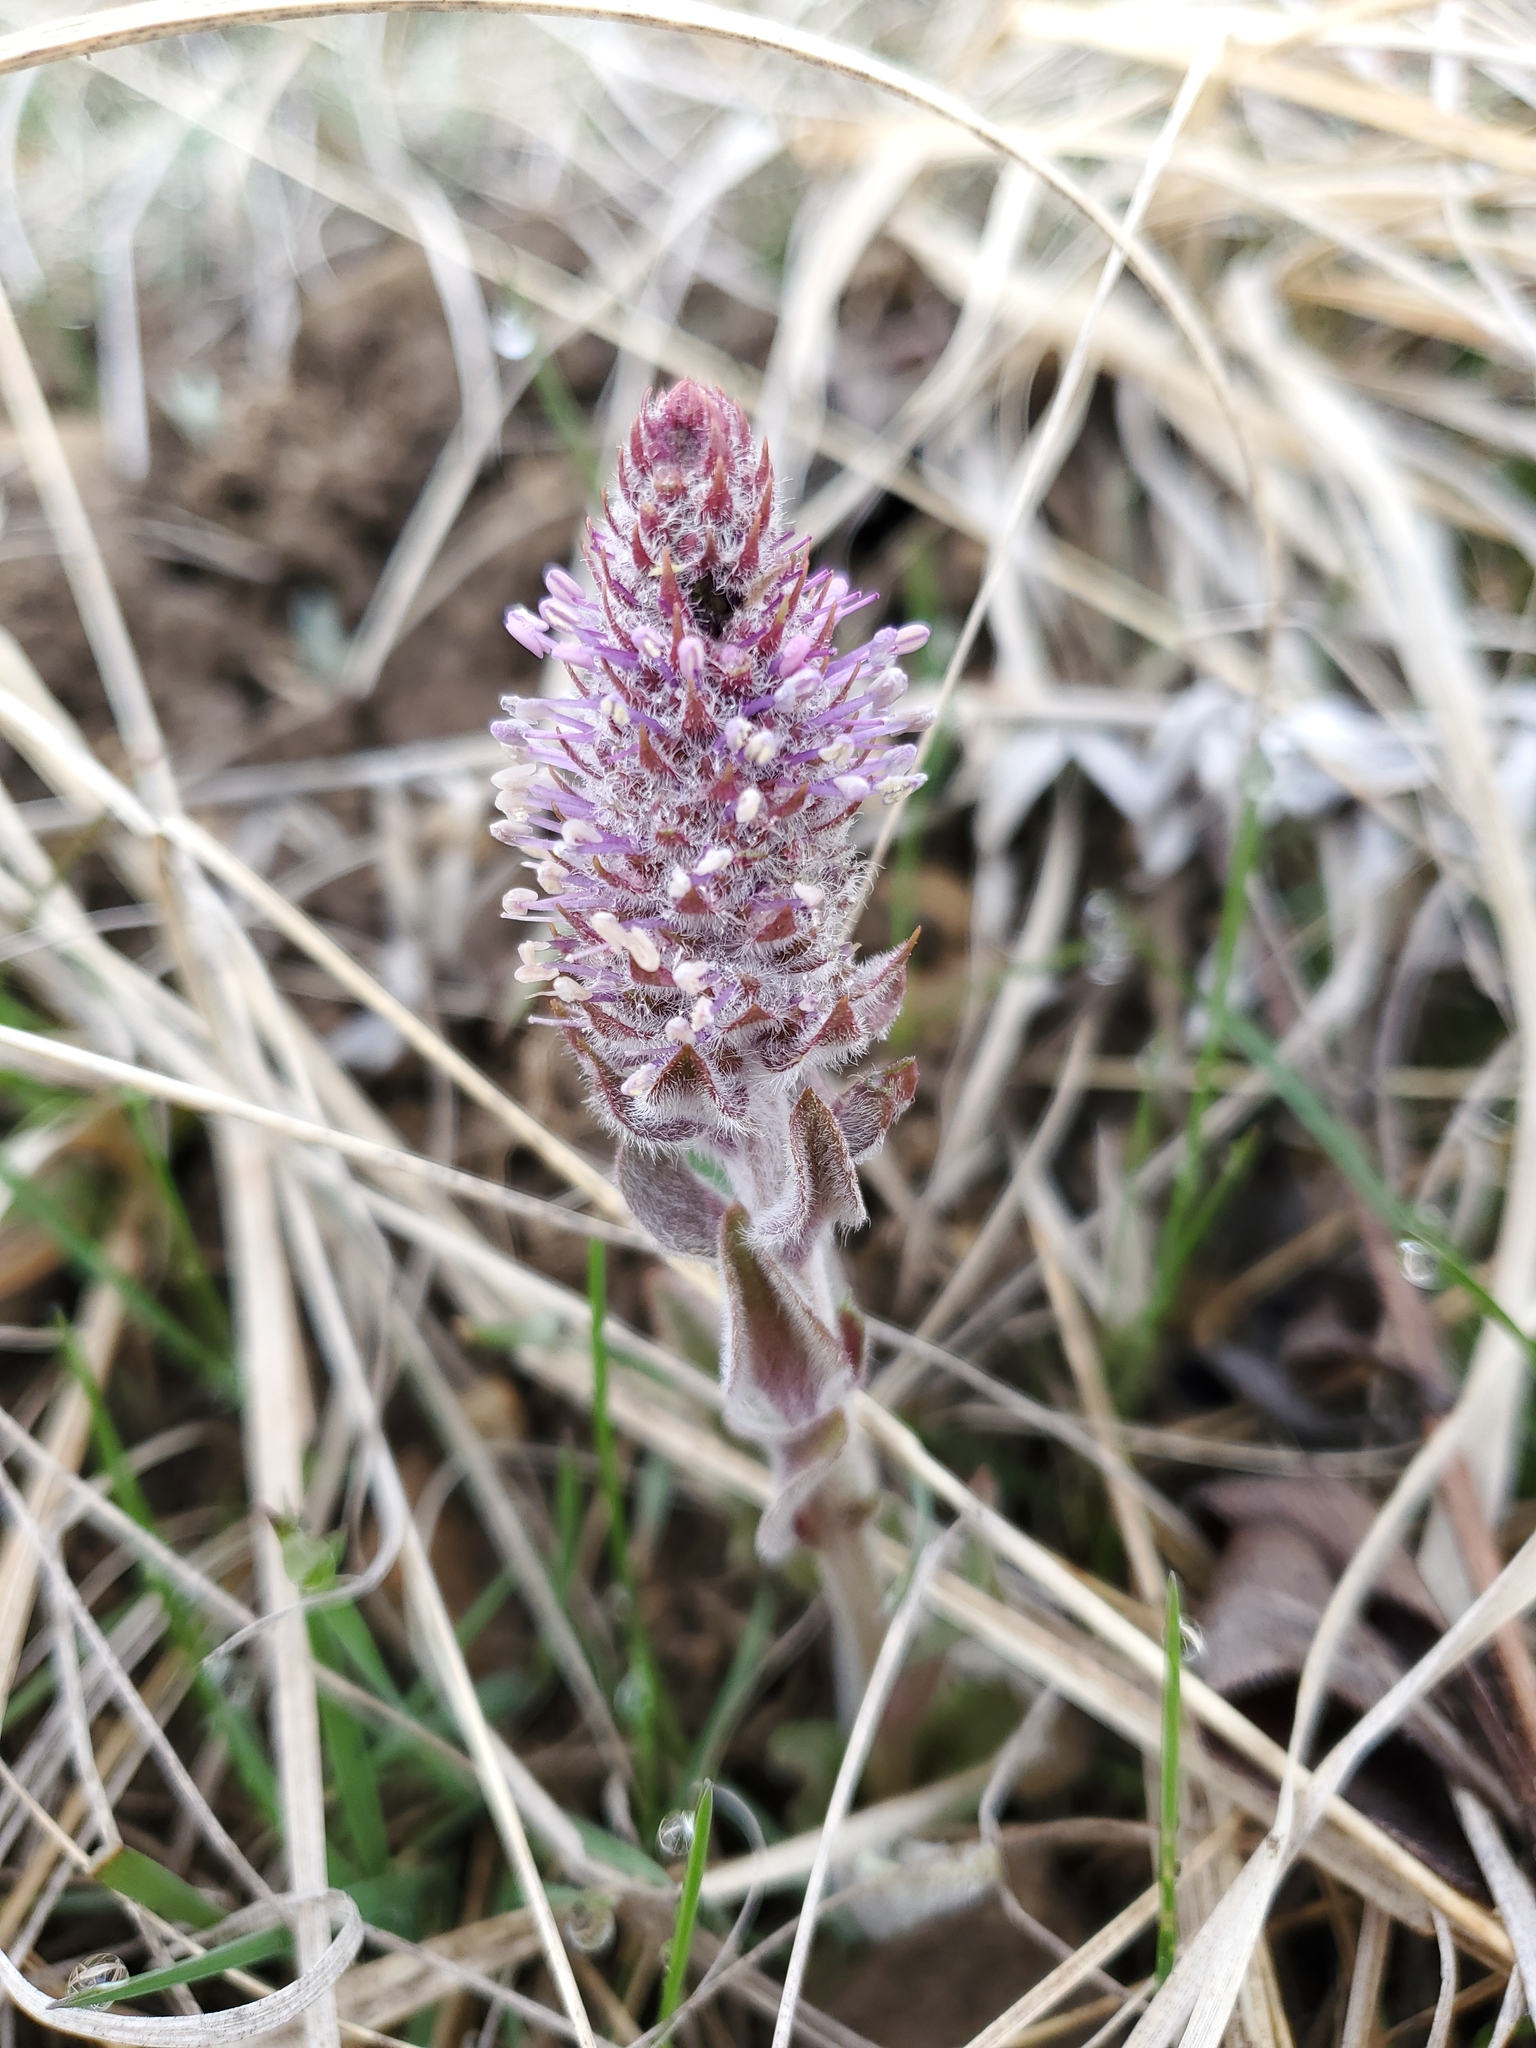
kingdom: Plantae
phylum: Tracheophyta
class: Magnoliopsida
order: Lamiales
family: Plantaginaceae
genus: Synthyris
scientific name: Synthyris wyomingensis
